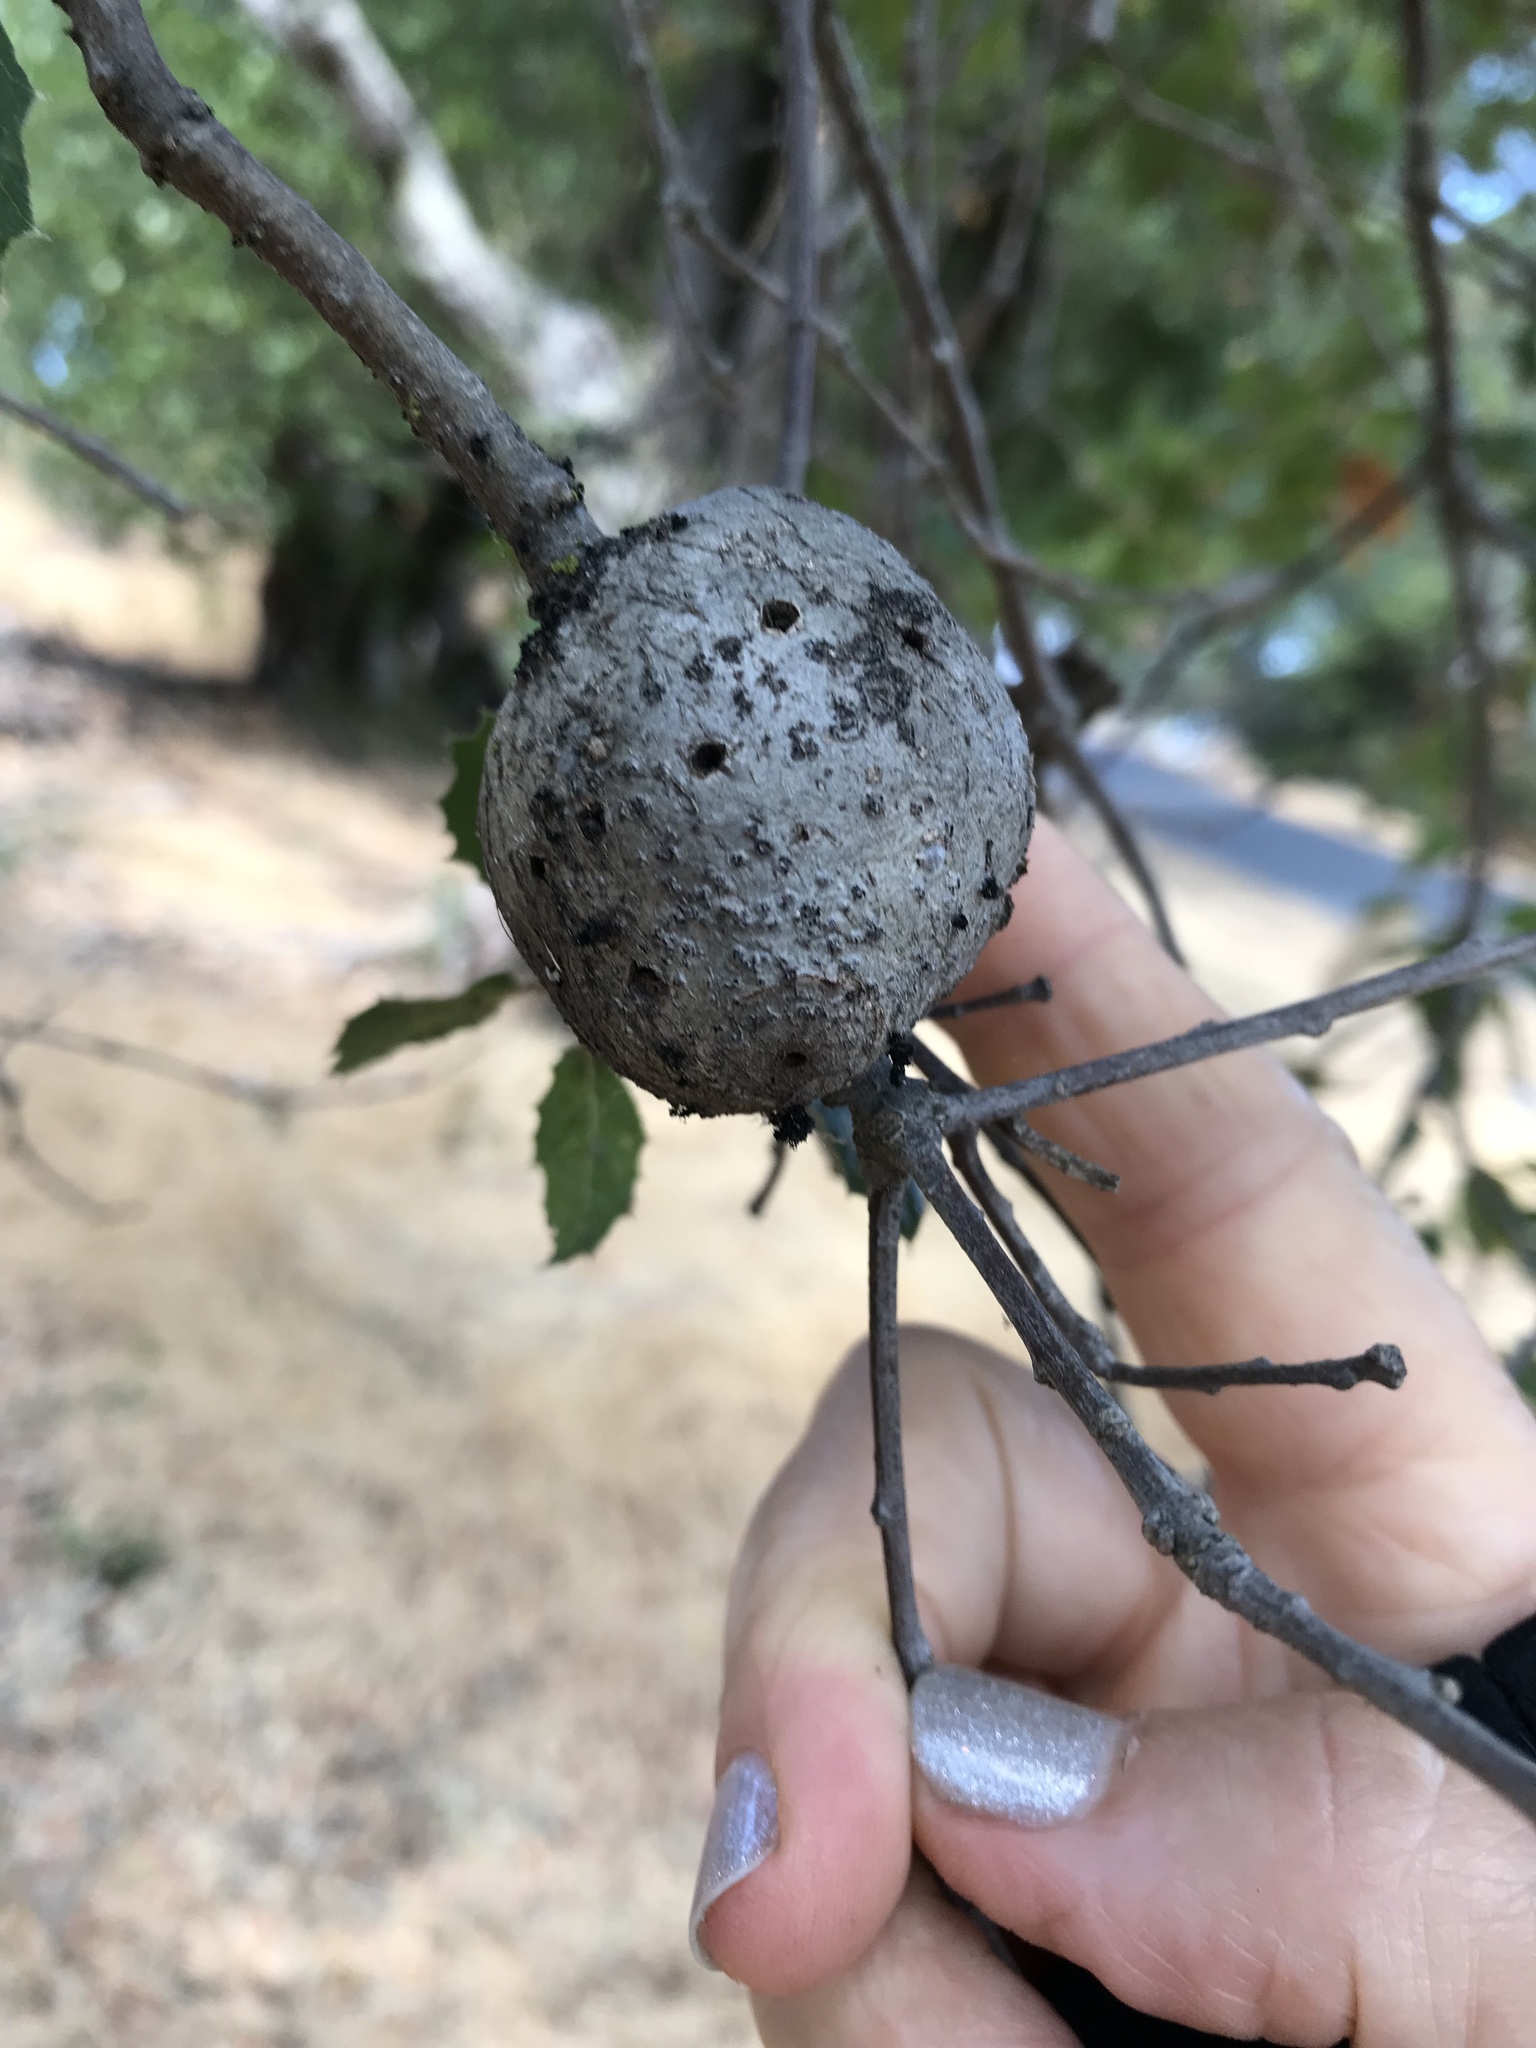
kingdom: Animalia
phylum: Arthropoda
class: Insecta
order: Hymenoptera
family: Cynipidae
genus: Callirhytis
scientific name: Callirhytis
